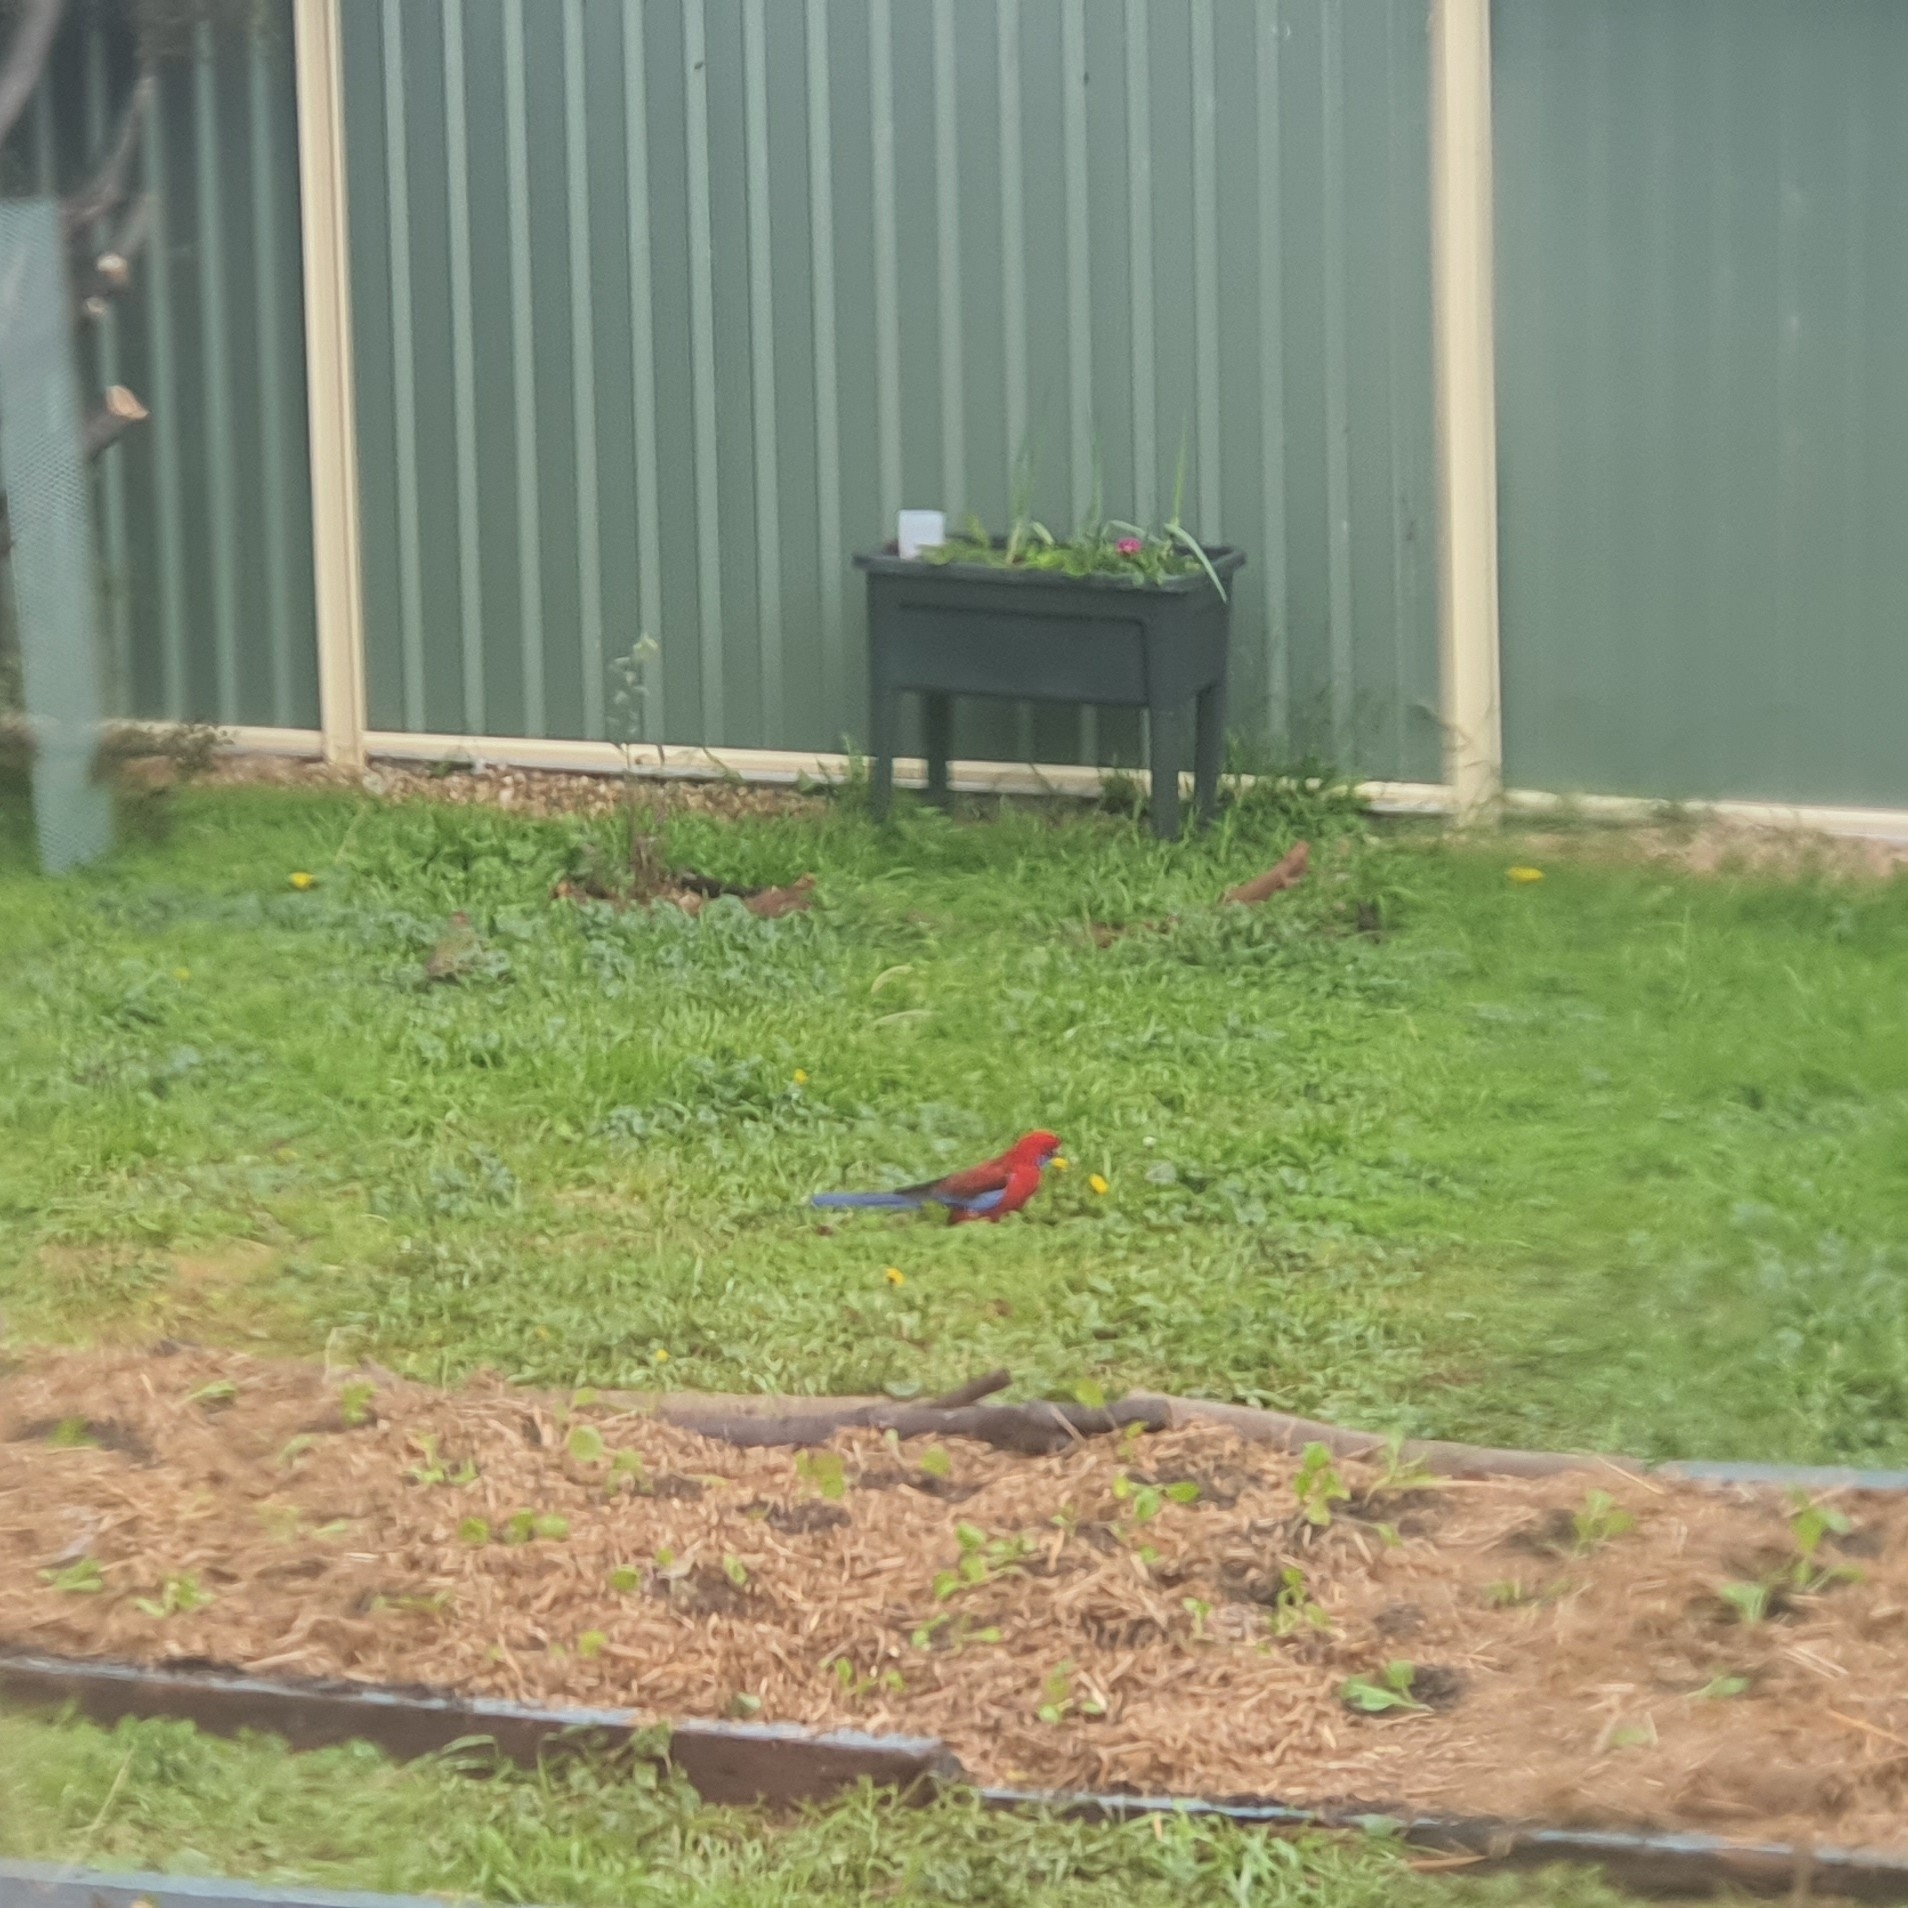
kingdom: Animalia
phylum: Chordata
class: Aves
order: Psittaciformes
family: Psittacidae
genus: Platycercus
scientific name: Platycercus elegans
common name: Crimson rosella
